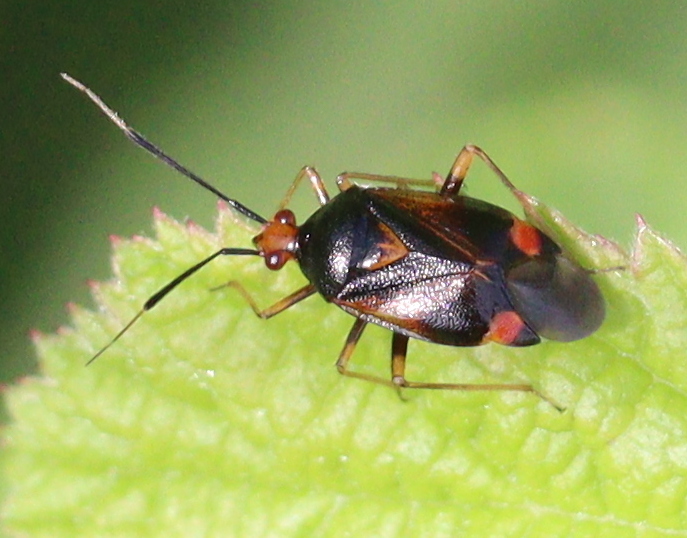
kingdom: Animalia
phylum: Arthropoda
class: Insecta
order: Hemiptera
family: Miridae
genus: Deraeocoris
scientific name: Deraeocoris ruber
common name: Plant bug
